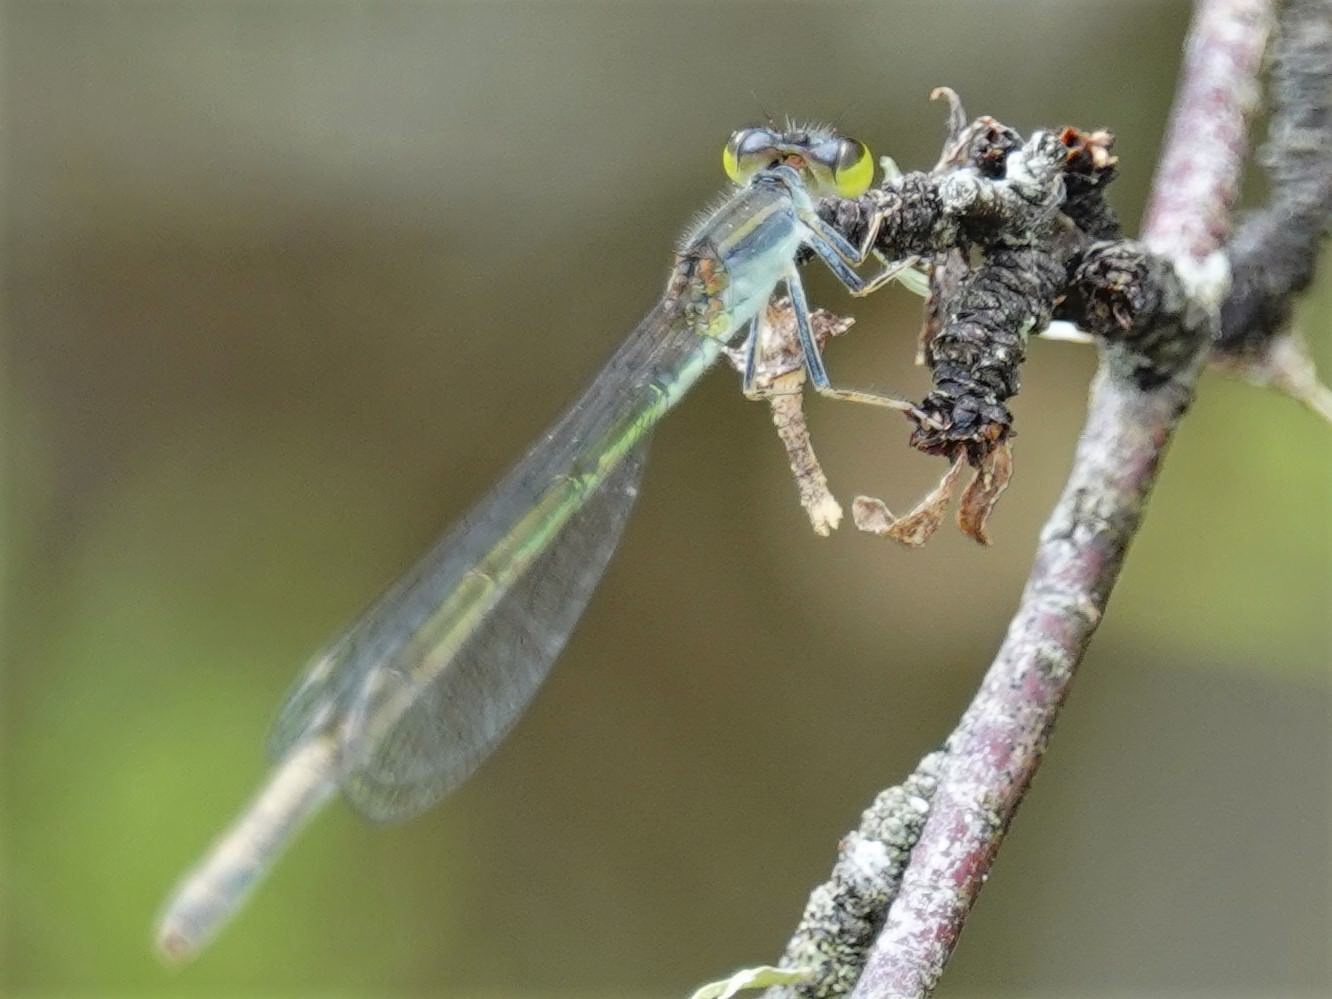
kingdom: Animalia
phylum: Arthropoda
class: Insecta
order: Odonata
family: Coenagrionidae
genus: Ischnura
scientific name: Ischnura aurora
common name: Gossamer damselfly
